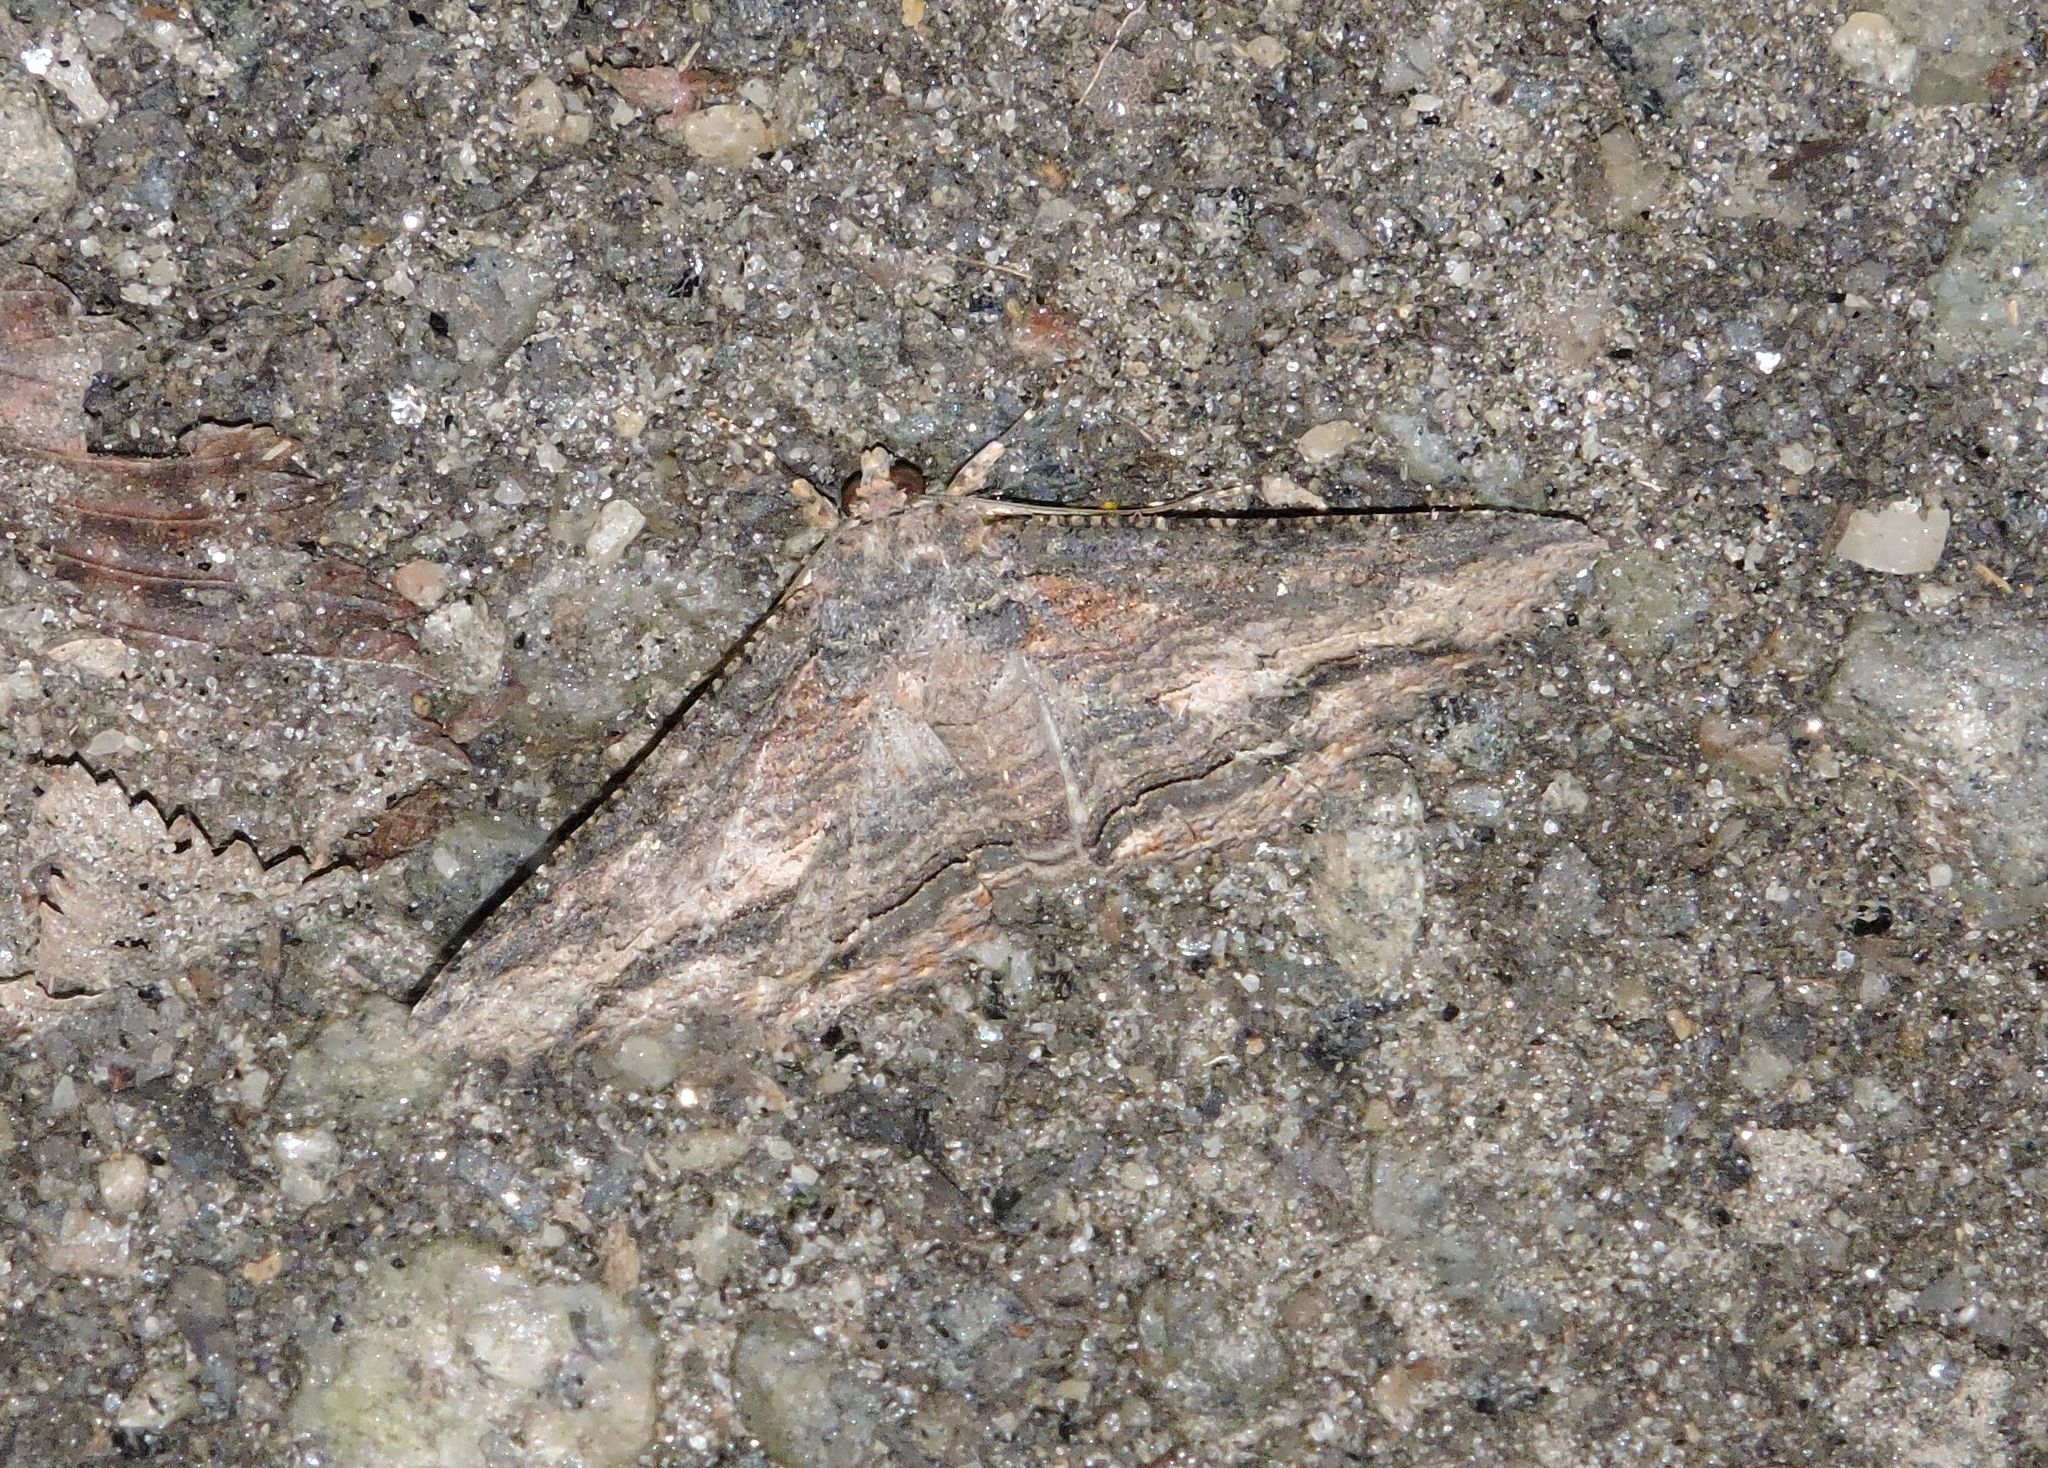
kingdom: Animalia
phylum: Arthropoda
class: Insecta
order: Lepidoptera
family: Erebidae
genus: Zale
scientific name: Zale lunata
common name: Lunate zale moth
